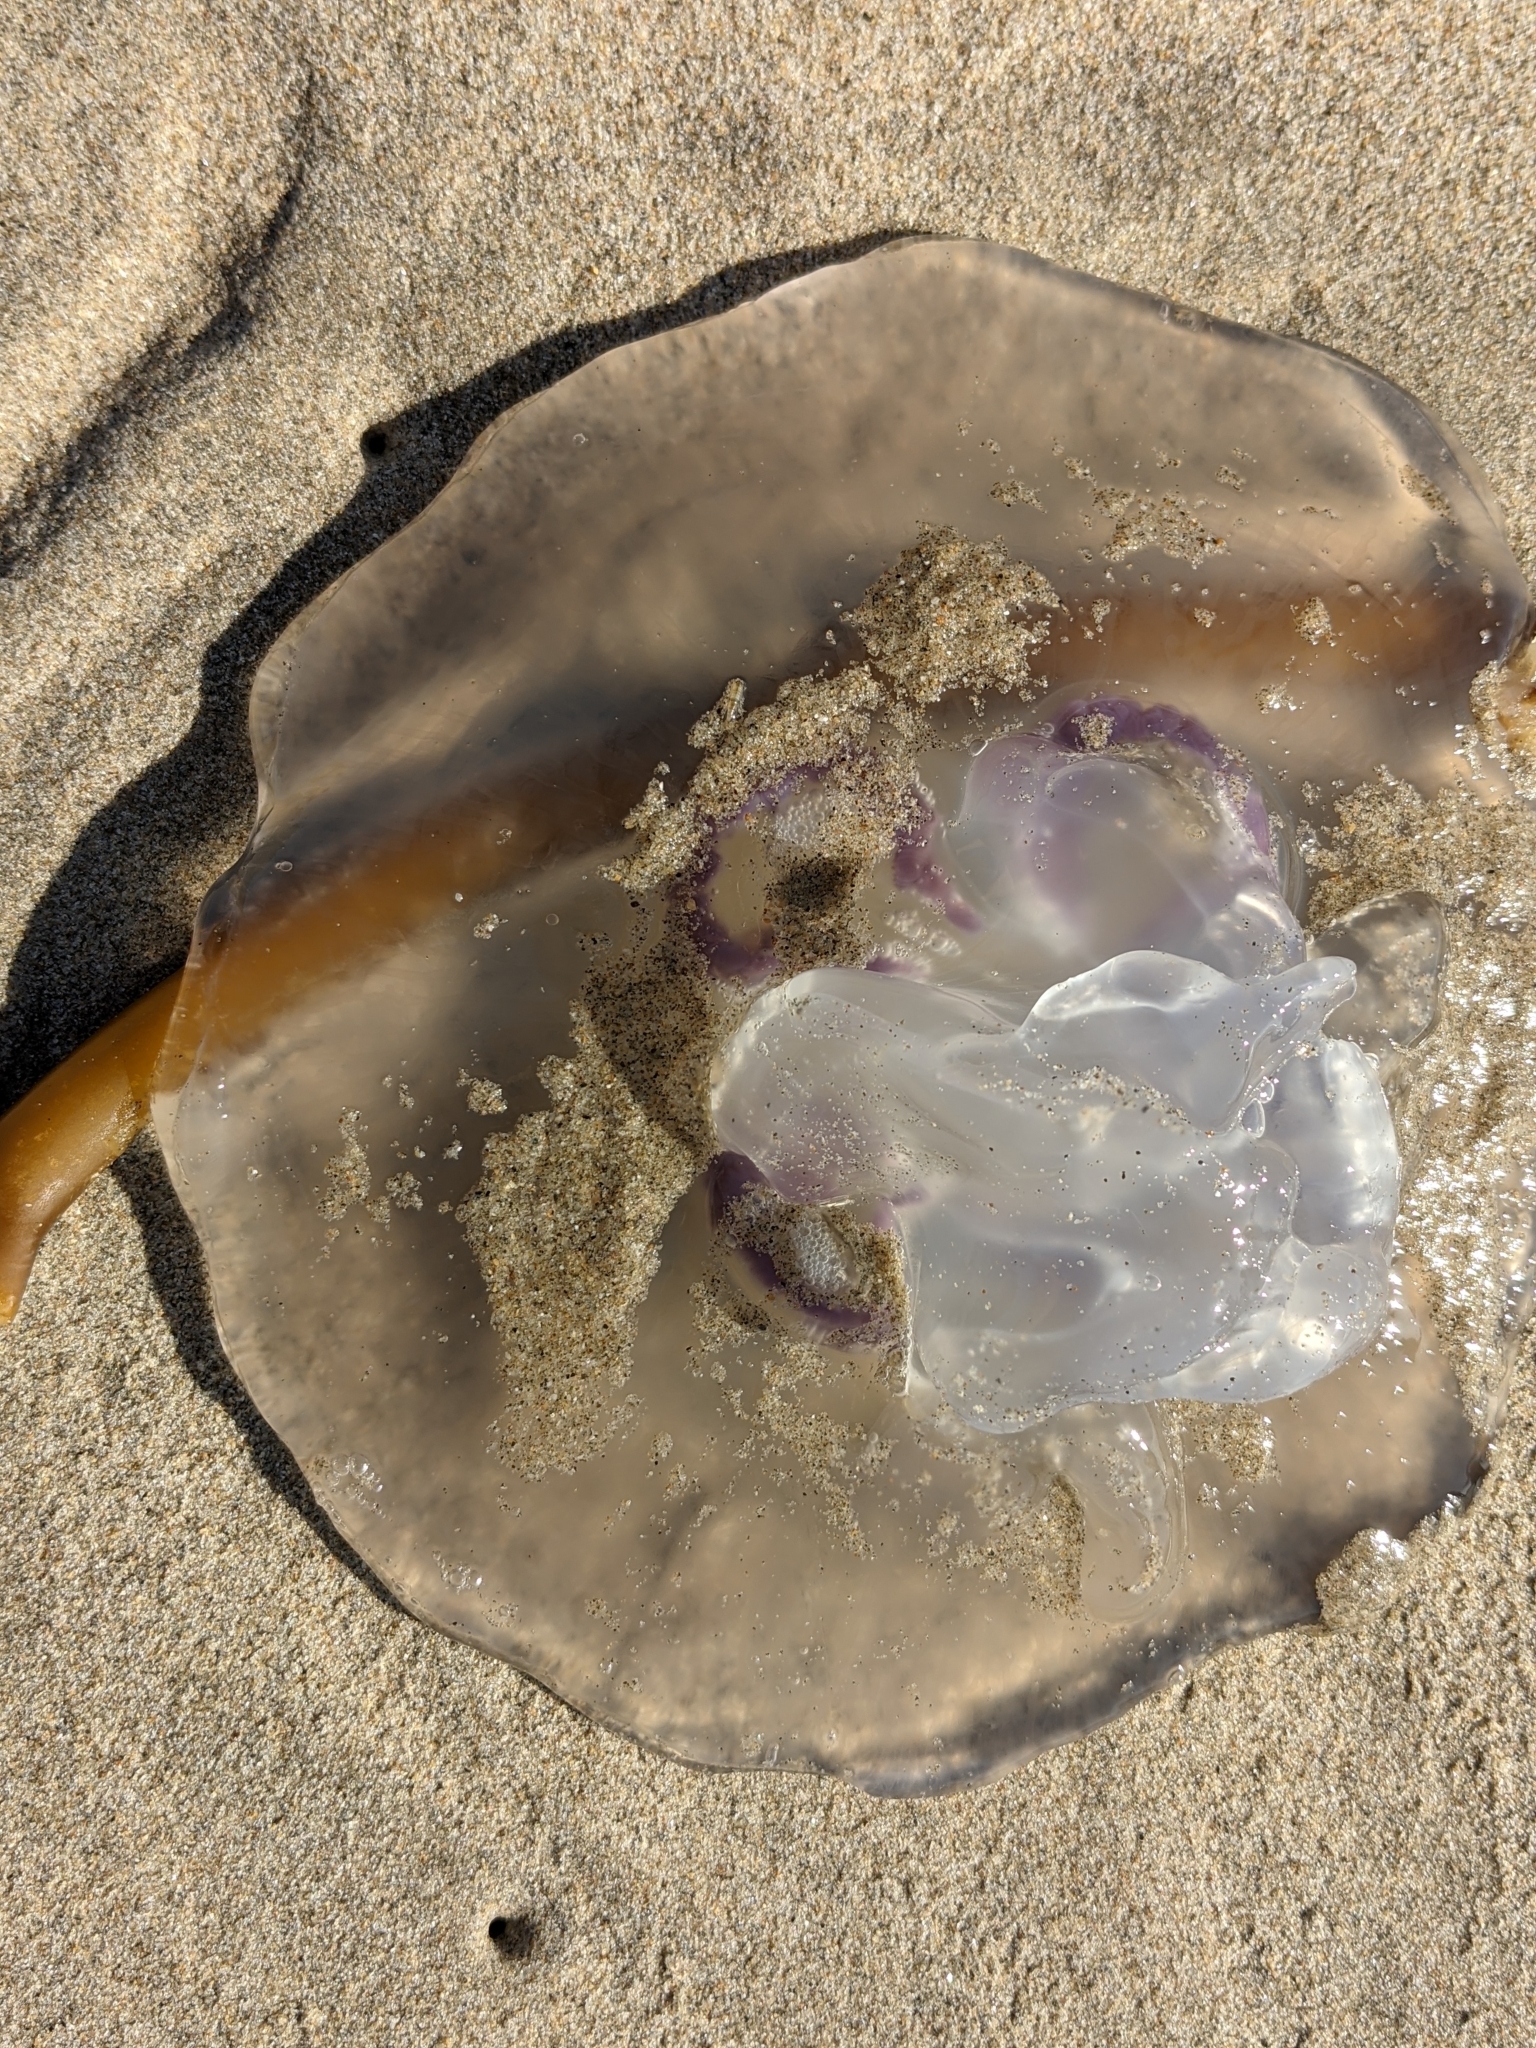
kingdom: Animalia
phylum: Cnidaria
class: Scyphozoa
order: Semaeostomeae
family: Ulmaridae
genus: Aurelia
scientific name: Aurelia labiata
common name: Pacific moon jelly
